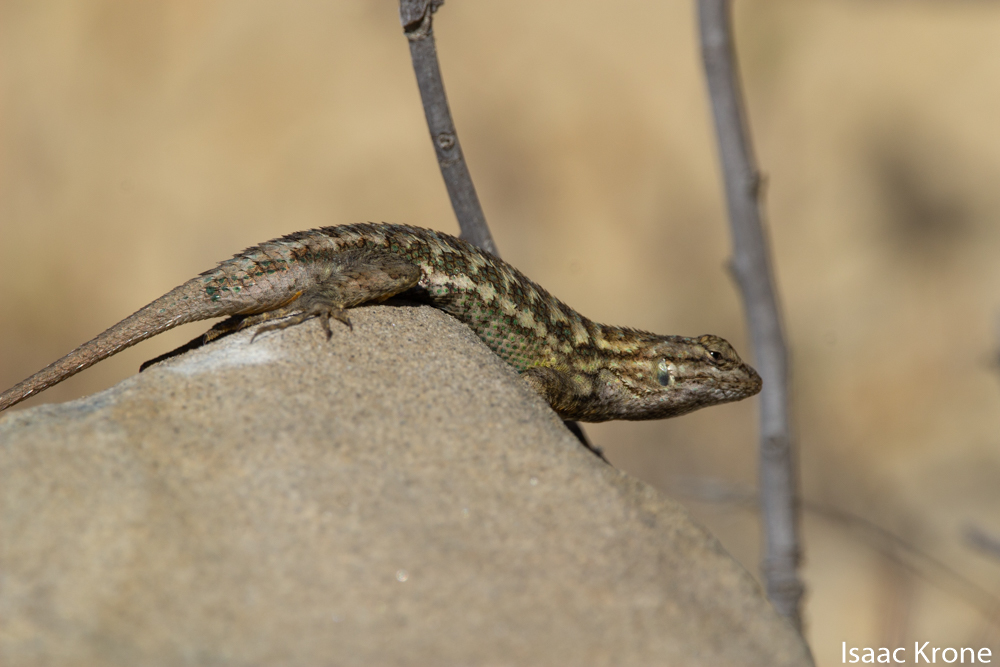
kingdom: Animalia
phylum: Chordata
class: Squamata
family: Phrynosomatidae
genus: Sceloporus
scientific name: Sceloporus occidentalis
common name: Western fence lizard
